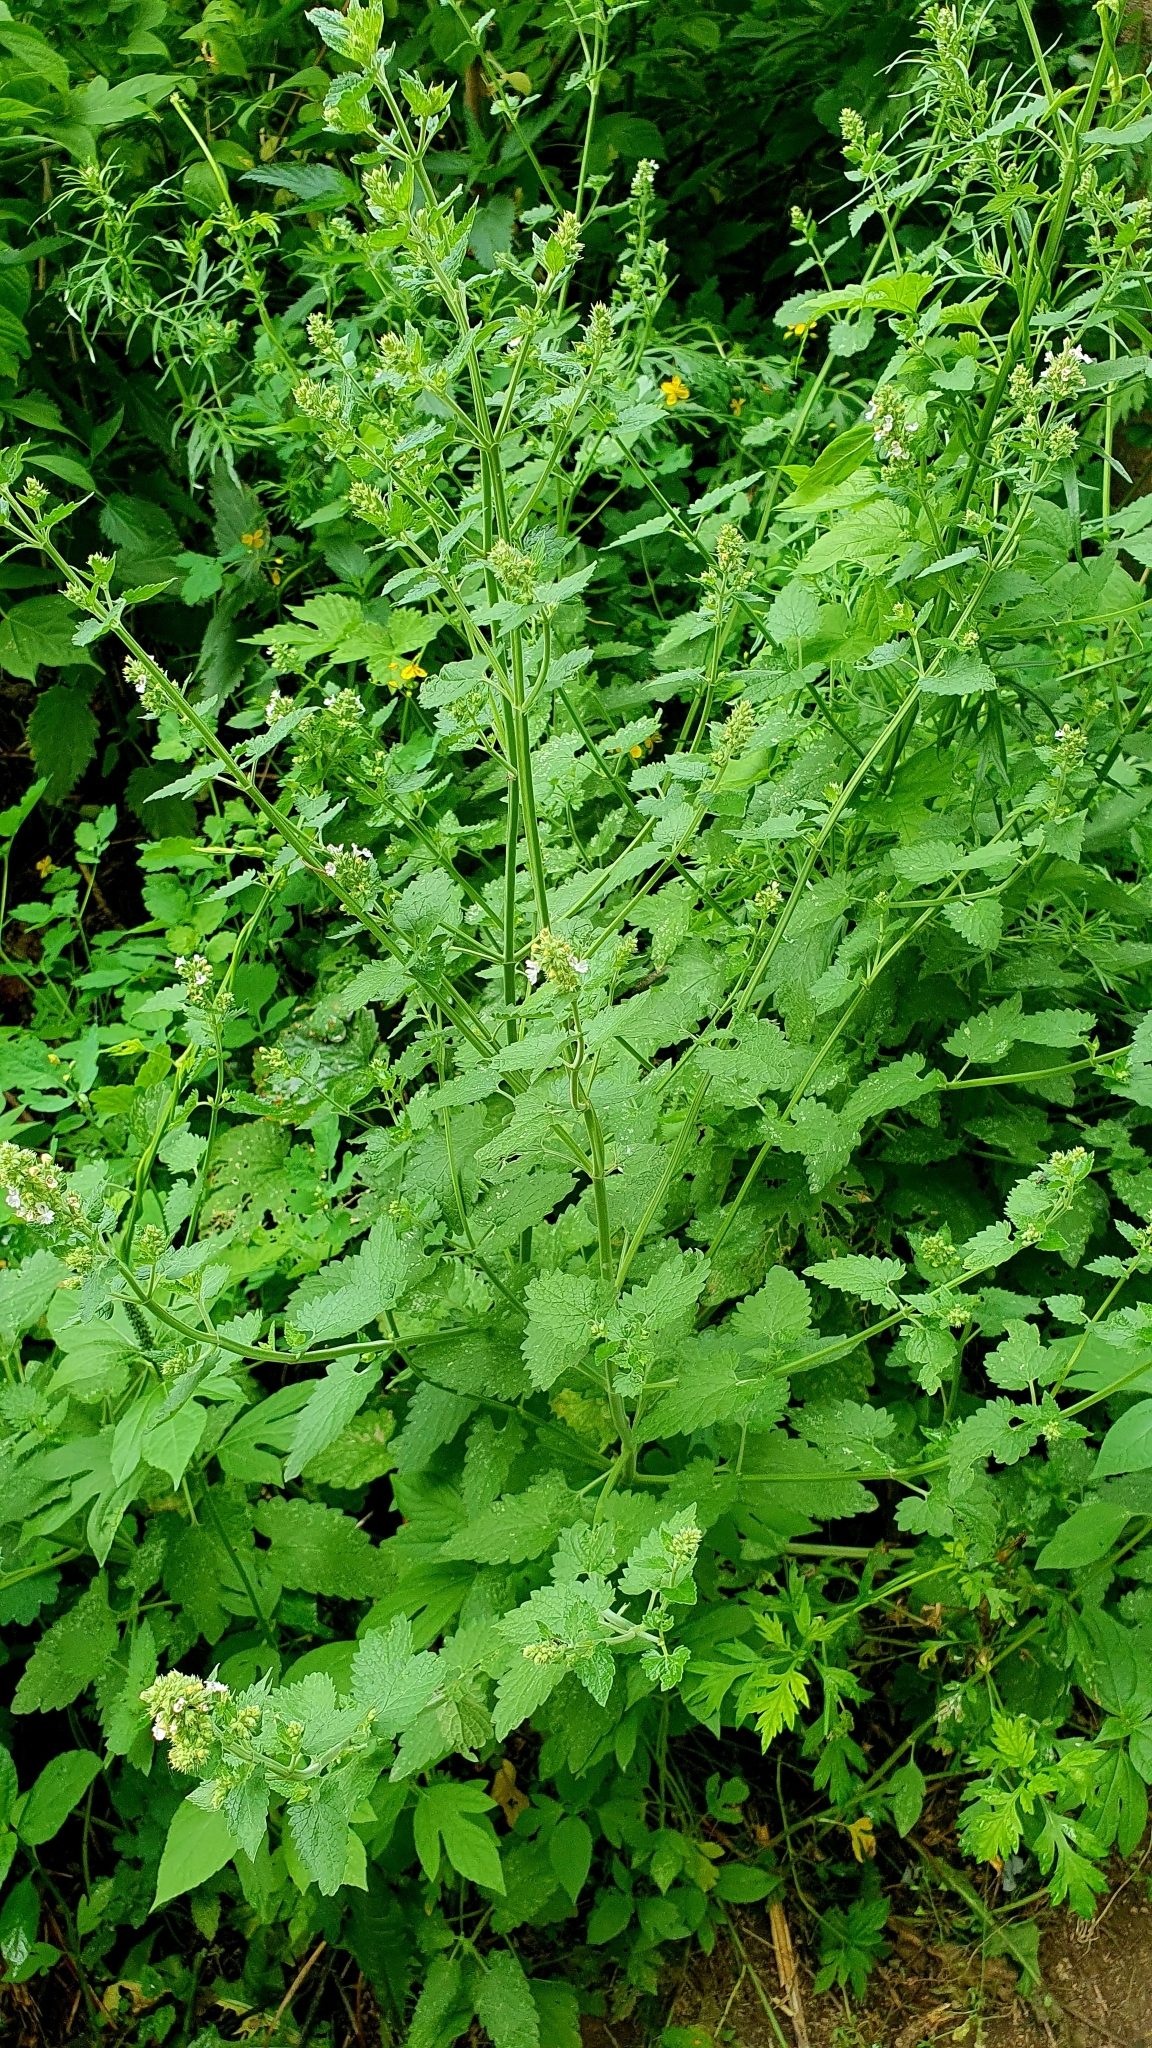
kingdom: Plantae
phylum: Tracheophyta
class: Magnoliopsida
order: Lamiales
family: Lamiaceae
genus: Nepeta
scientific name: Nepeta cataria
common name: Catnip
